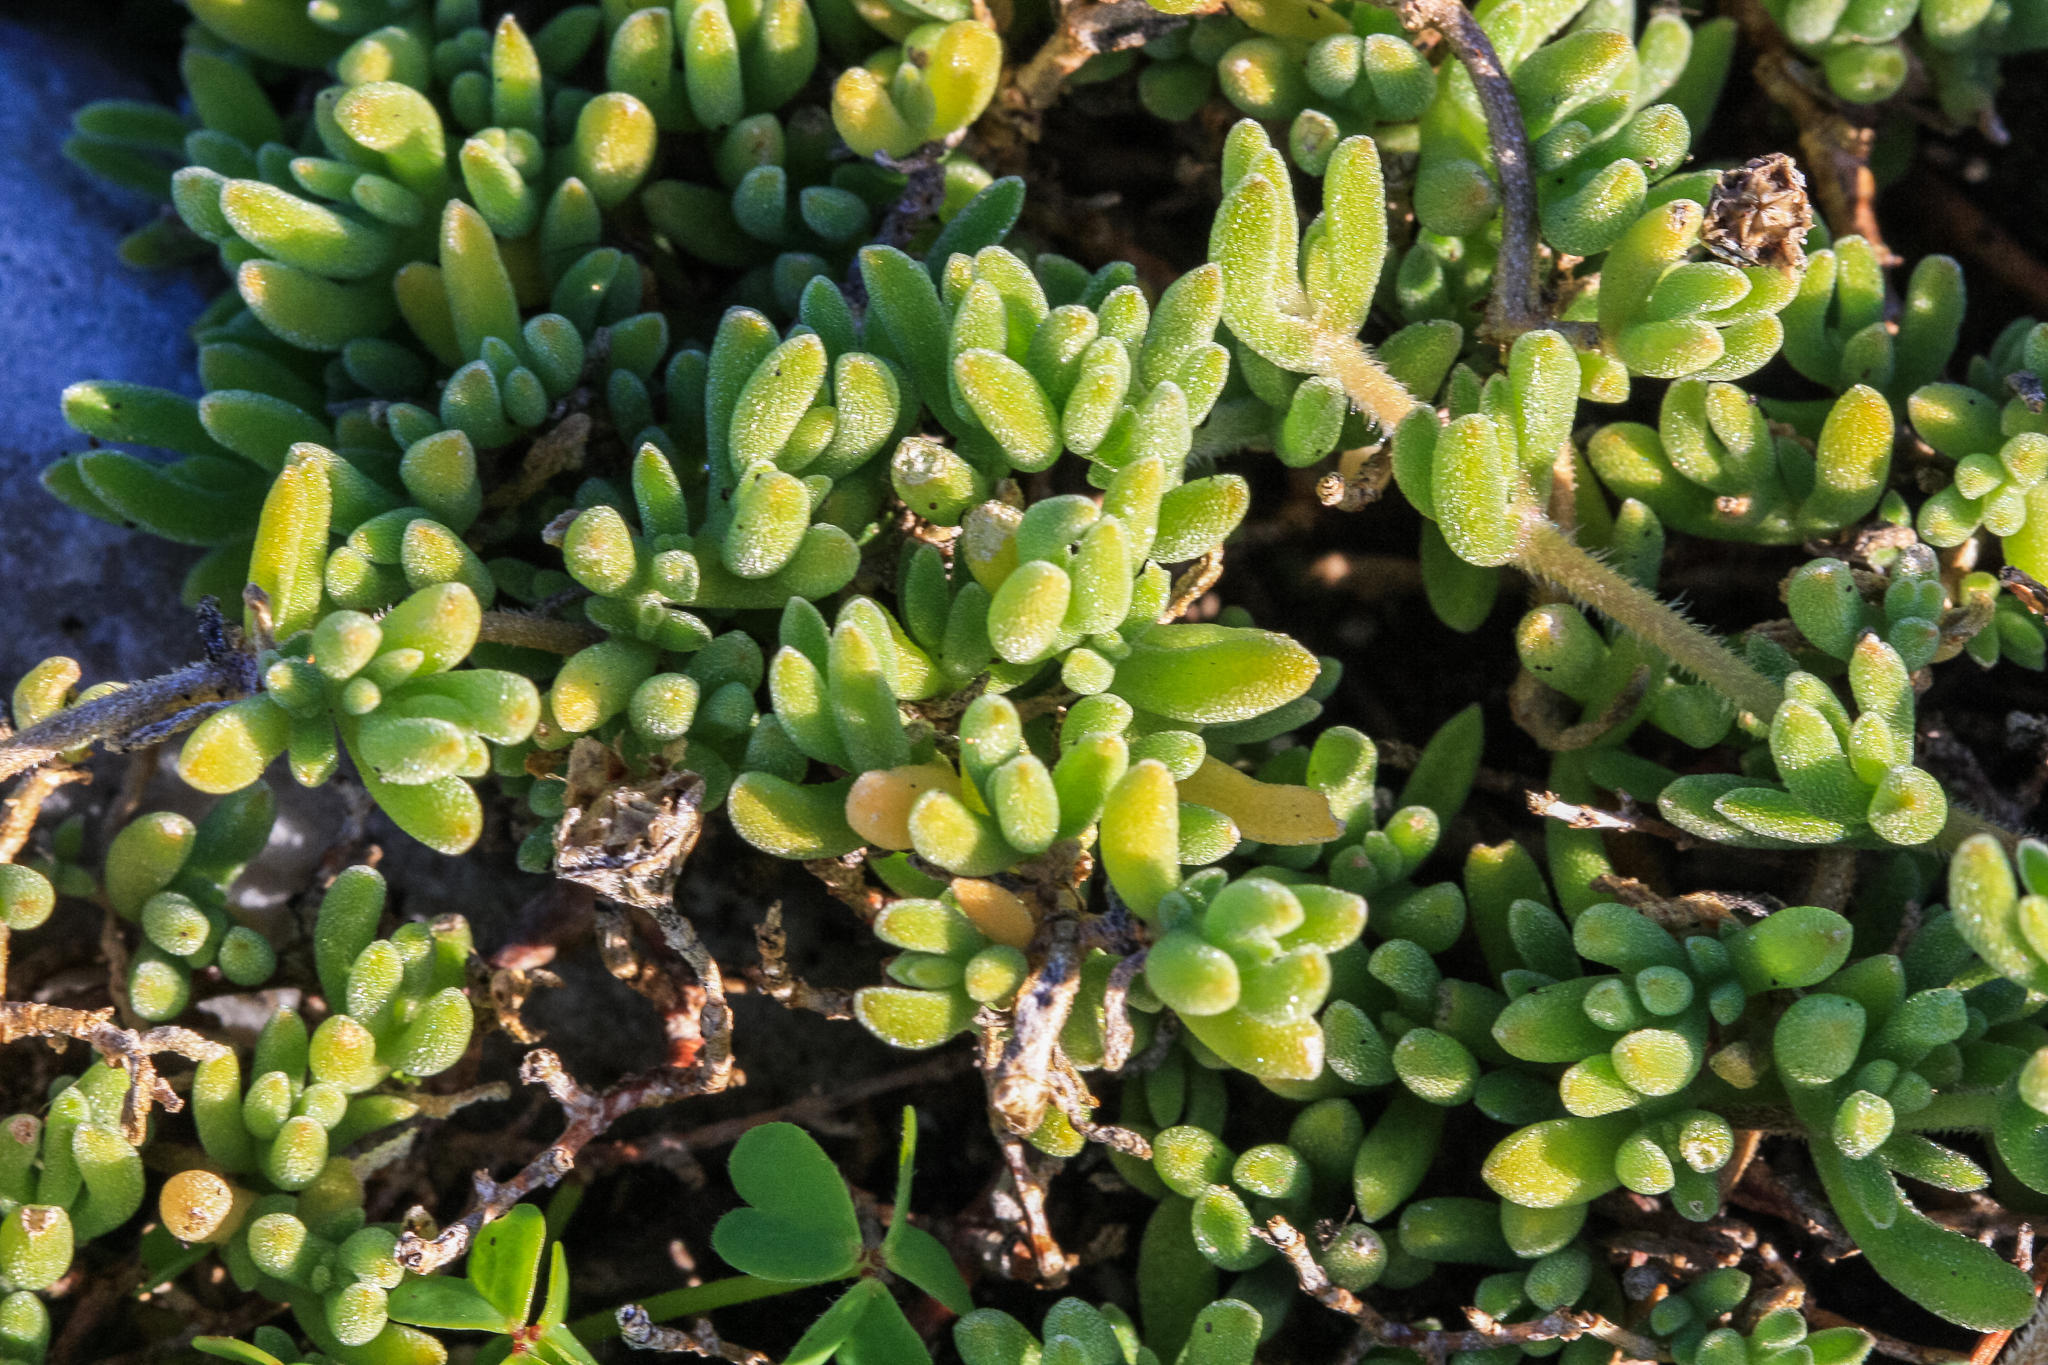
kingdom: Plantae
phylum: Tracheophyta
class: Magnoliopsida
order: Caryophyllales
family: Aizoaceae
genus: Drosanthemum
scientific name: Drosanthemum candens
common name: Rodondo-creeper
